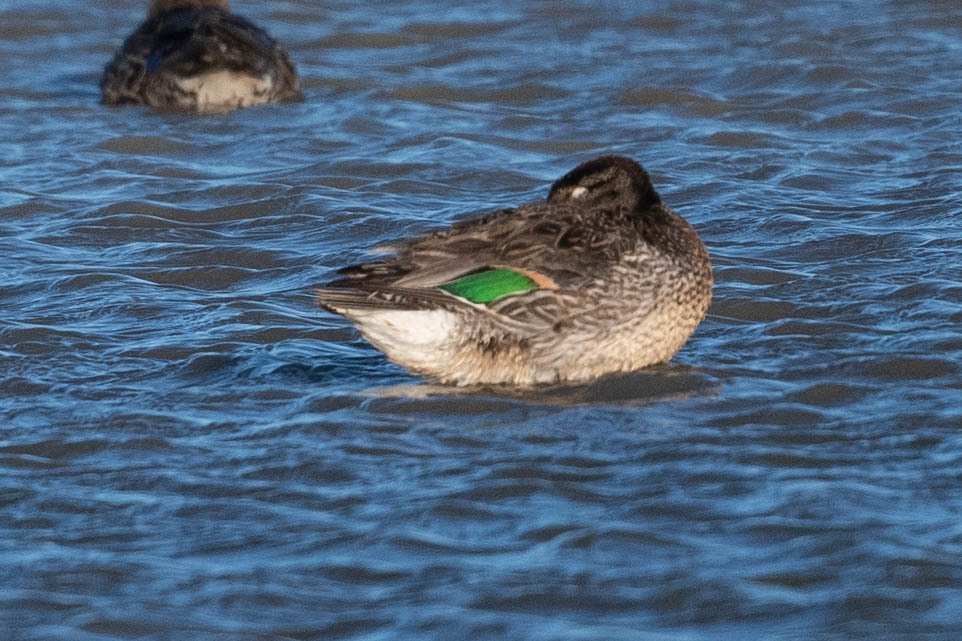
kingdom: Animalia
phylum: Chordata
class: Aves
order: Anseriformes
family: Anatidae
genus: Anas
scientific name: Anas crecca
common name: Eurasian teal
